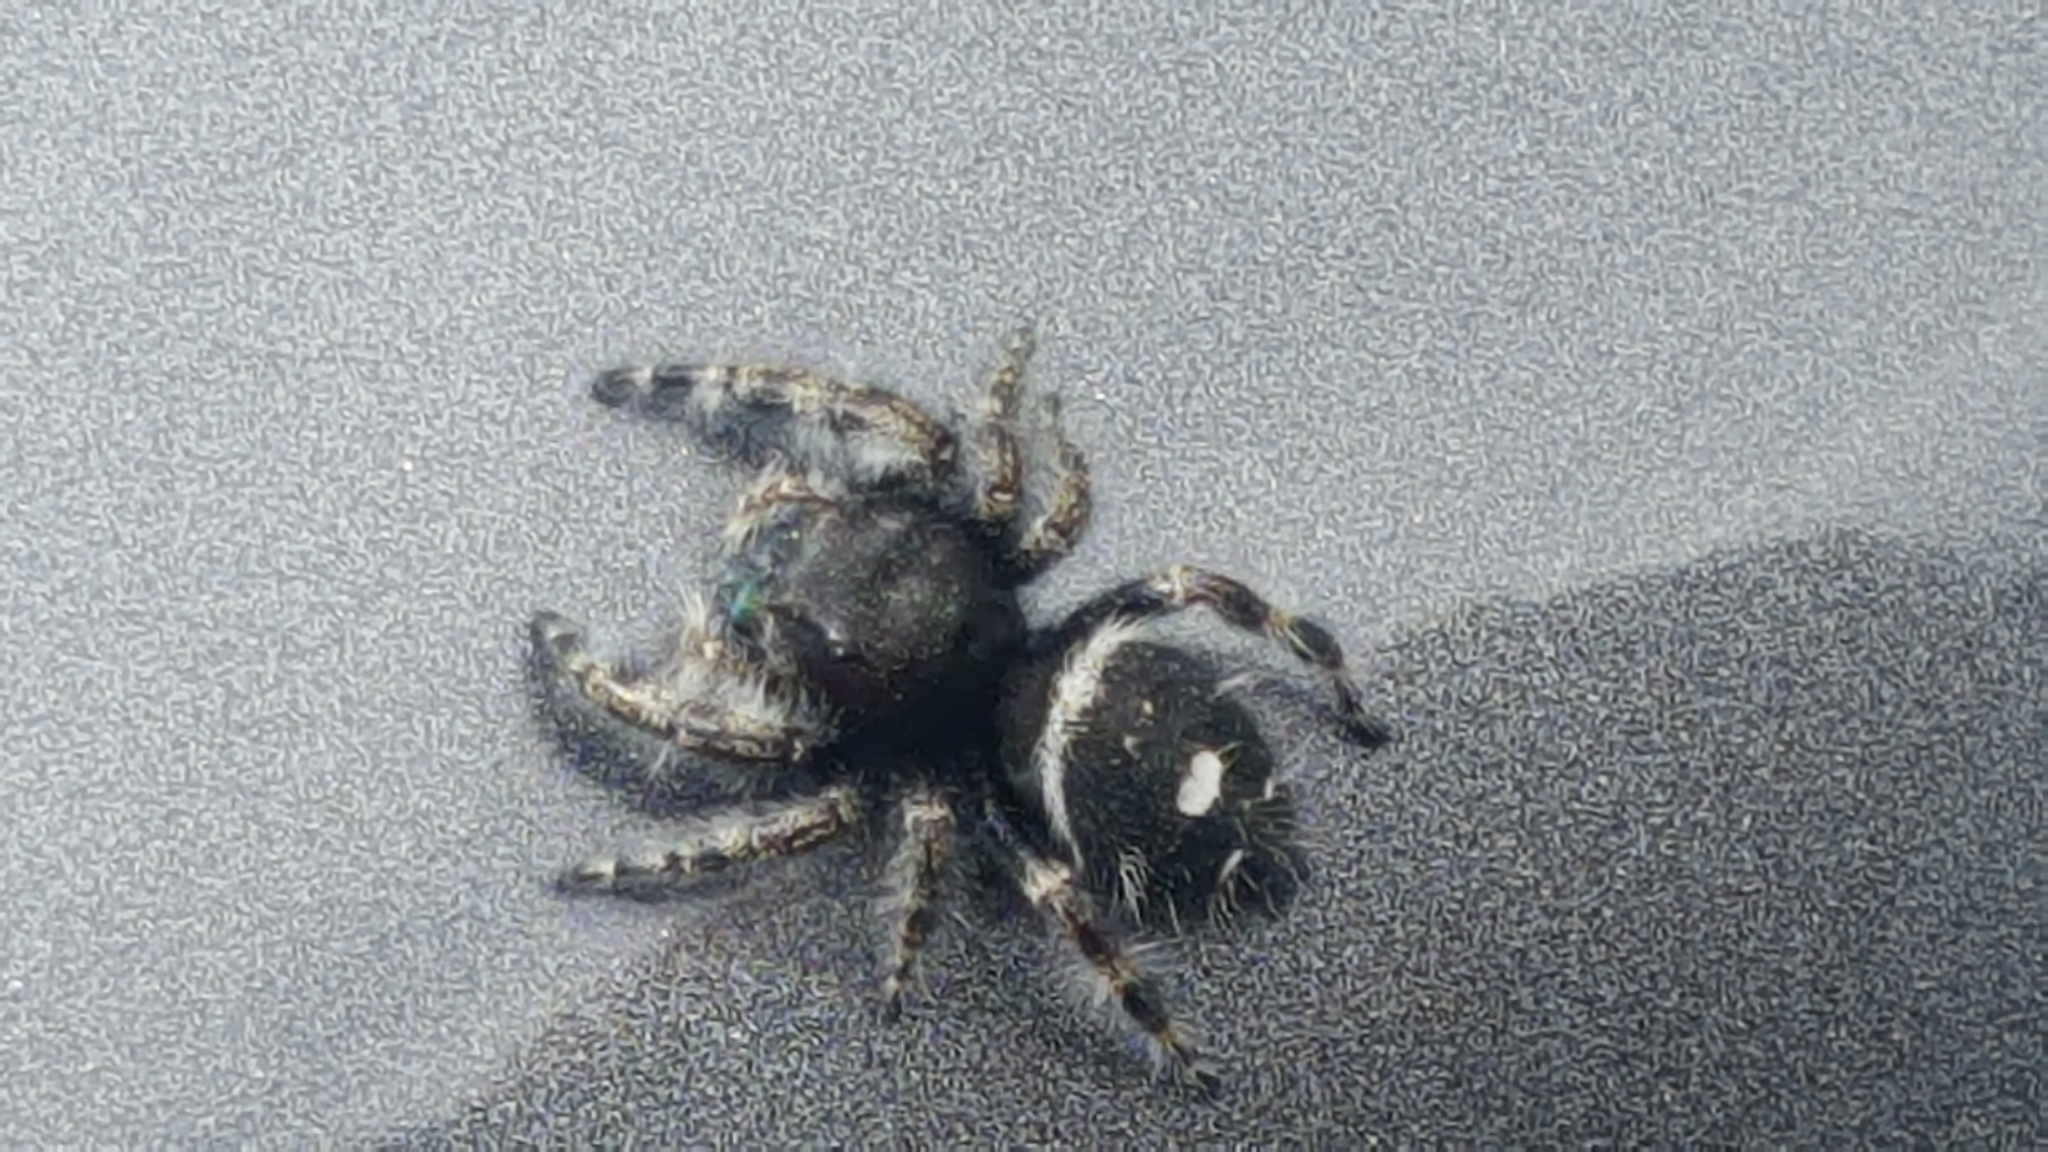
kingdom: Animalia
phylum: Arthropoda
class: Arachnida
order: Araneae
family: Salticidae
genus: Phidippus
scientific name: Phidippus audax
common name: Bold jumper
